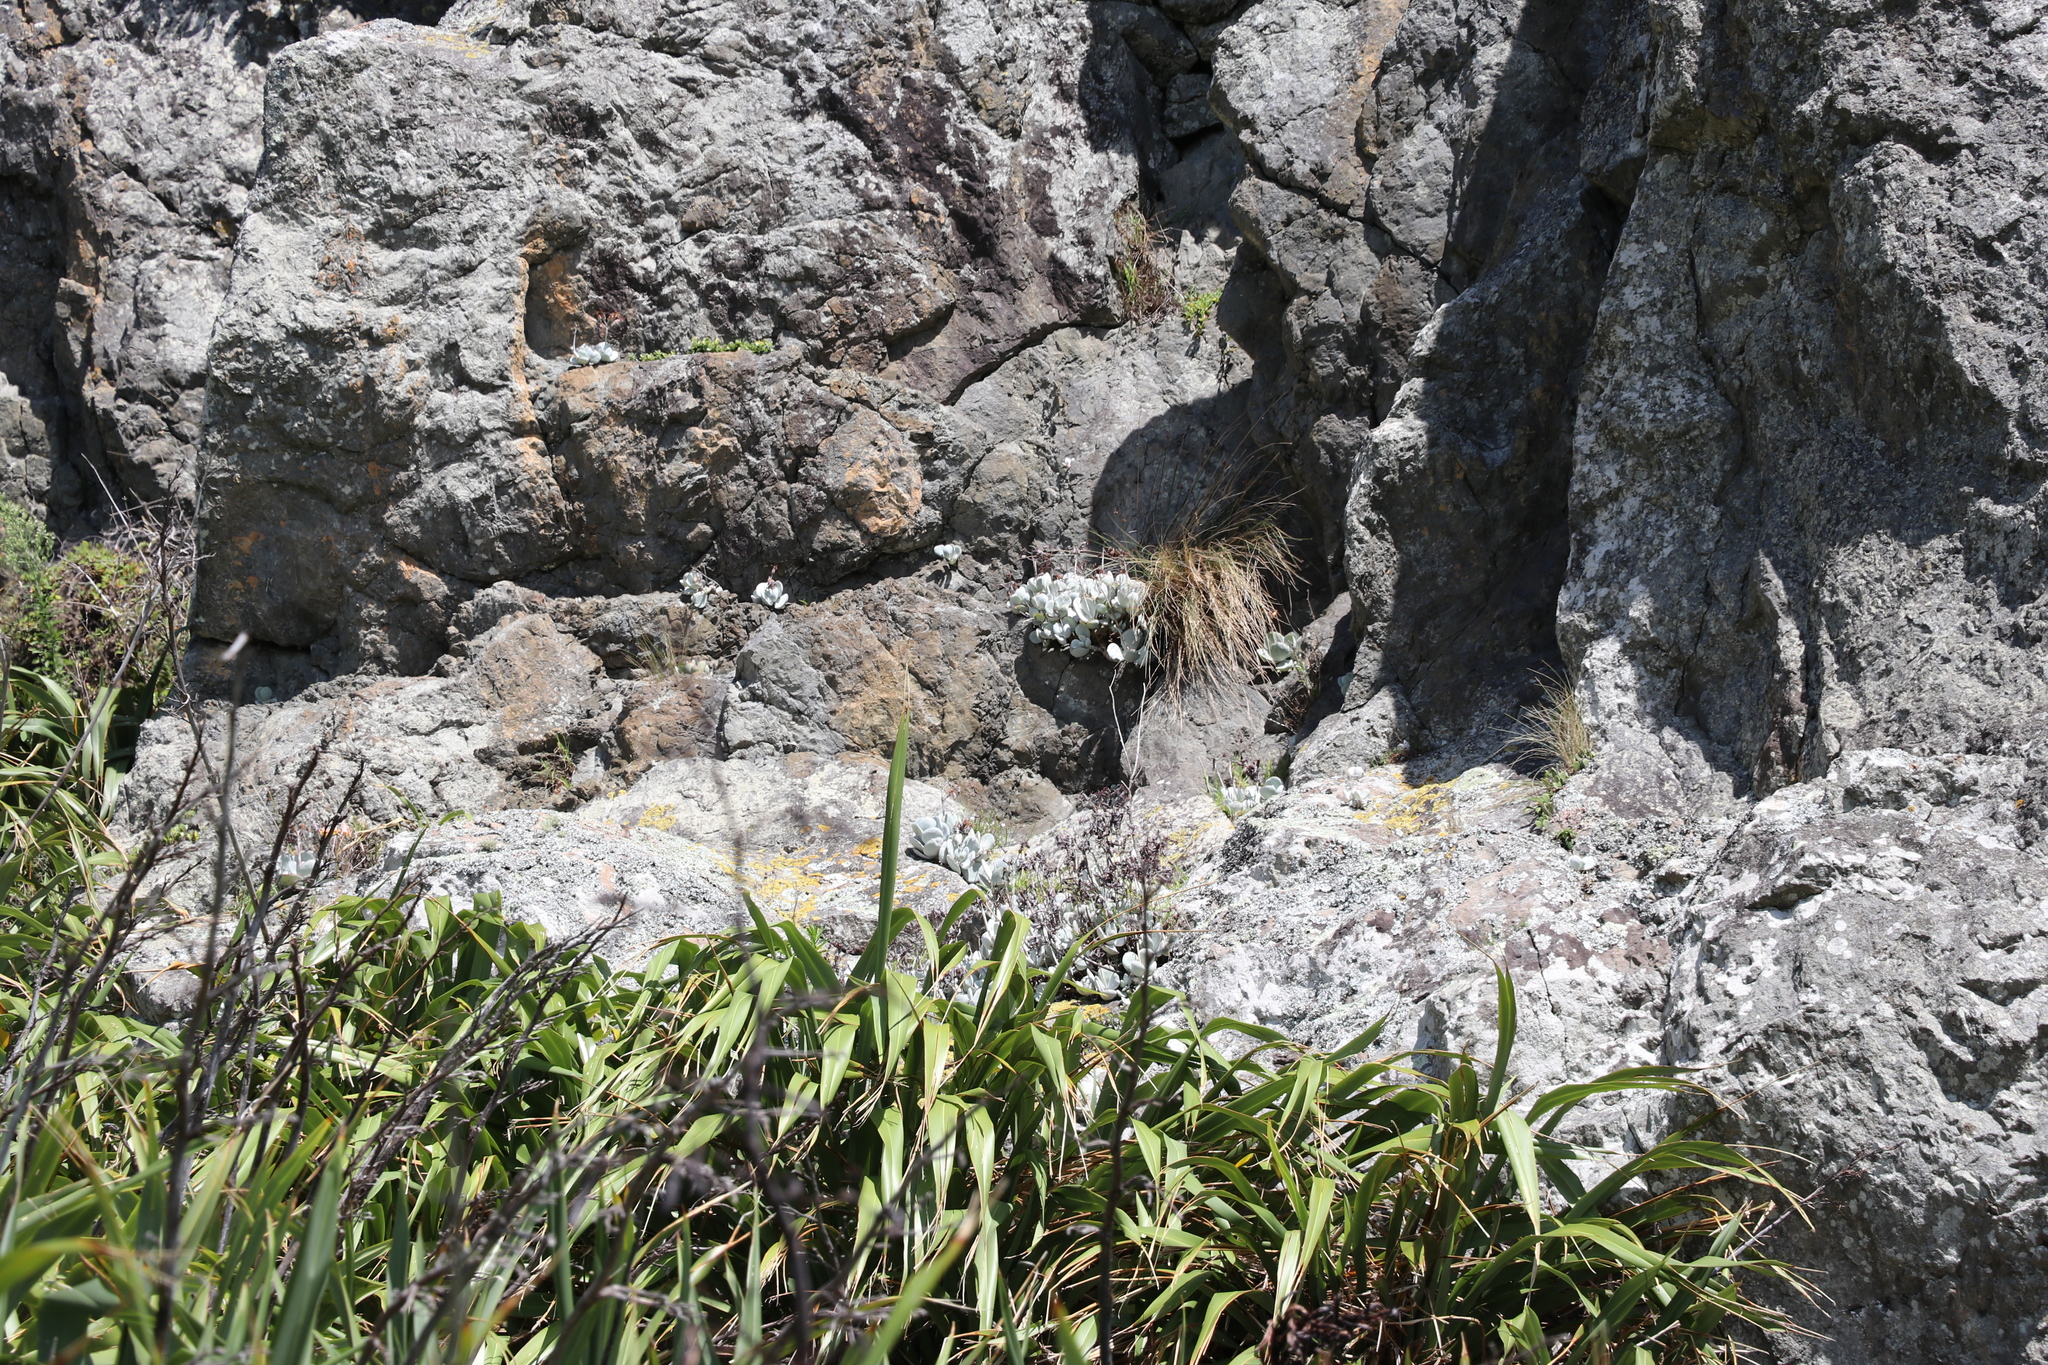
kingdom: Plantae
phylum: Tracheophyta
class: Magnoliopsida
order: Saxifragales
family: Crassulaceae
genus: Cotyledon
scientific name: Cotyledon orbiculata
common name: Pig's ear
